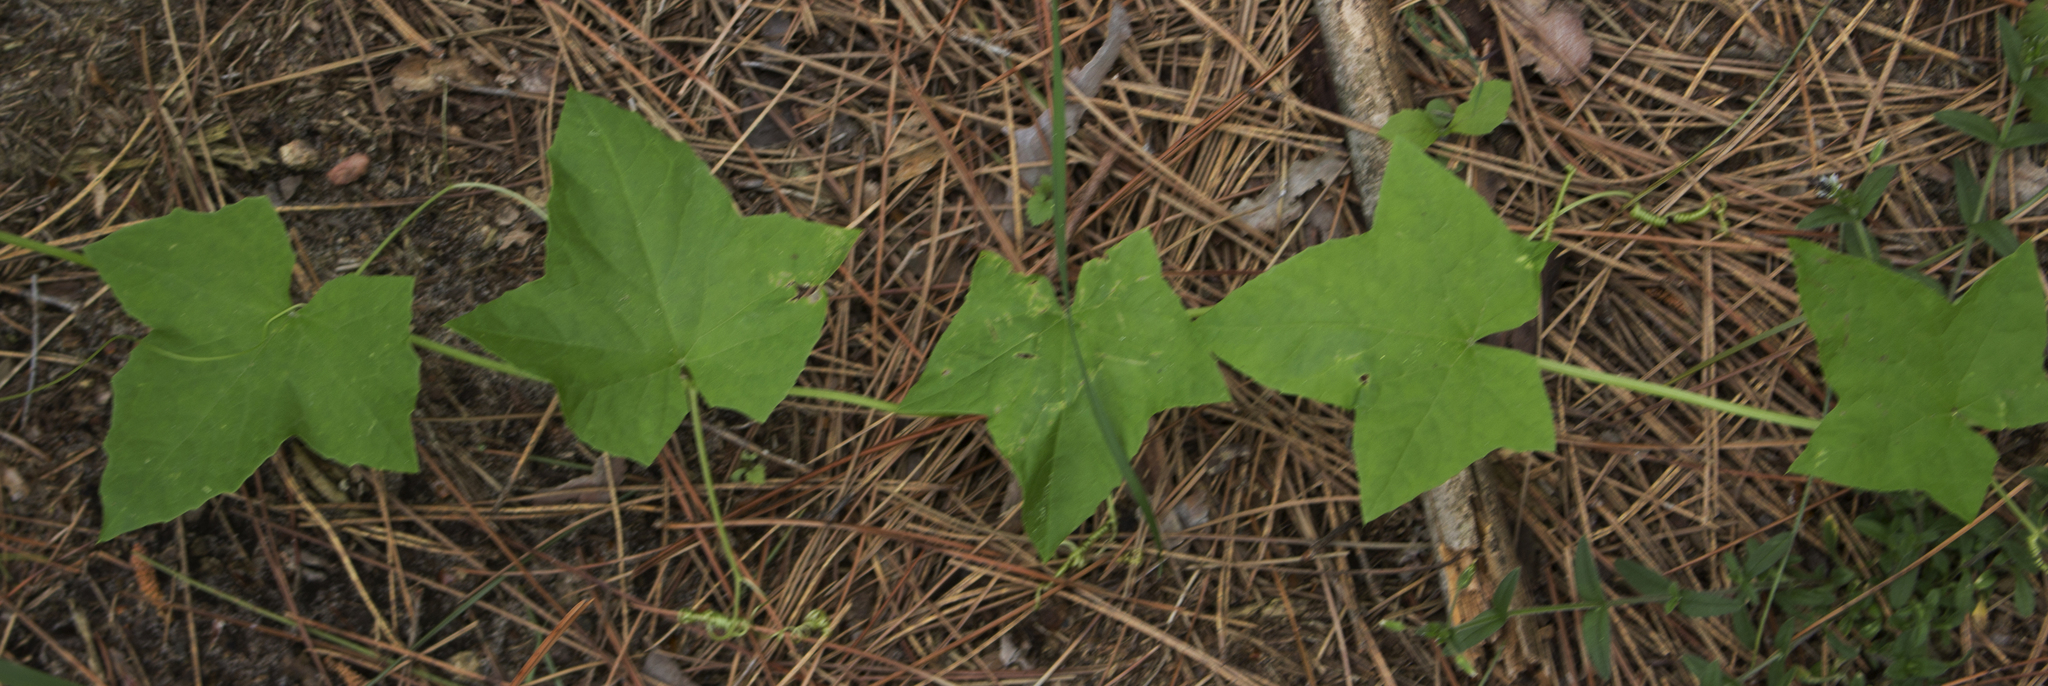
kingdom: Plantae
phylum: Tracheophyta
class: Magnoliopsida
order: Cucurbitales
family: Cucurbitaceae
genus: Echinocystis
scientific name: Echinocystis lobata
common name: Wild cucumber
